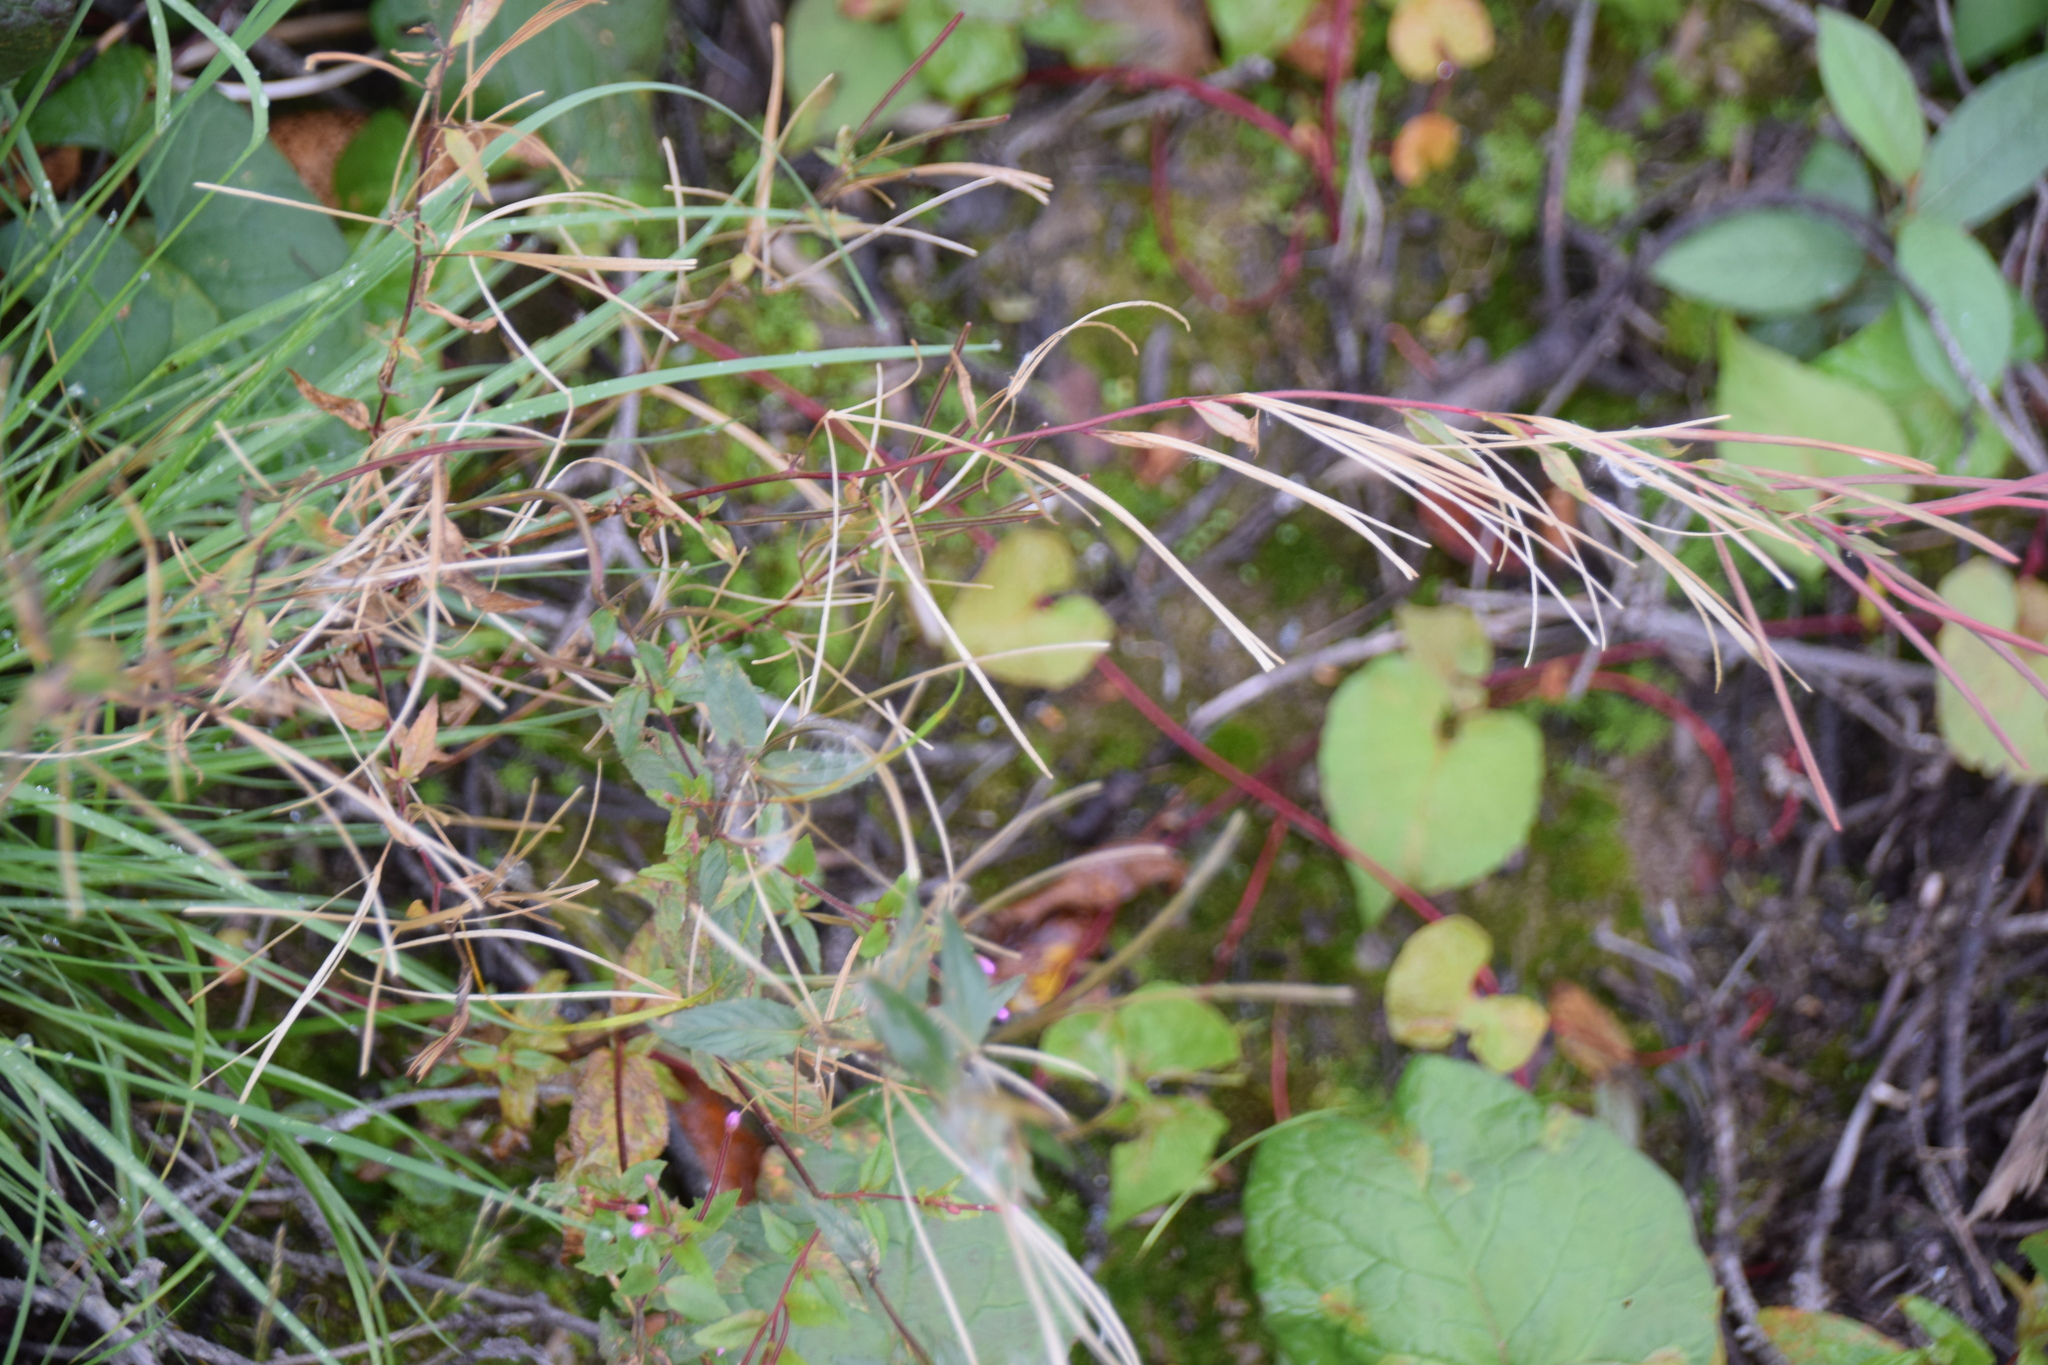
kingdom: Plantae
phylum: Tracheophyta
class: Magnoliopsida
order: Myrtales
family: Onagraceae
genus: Epilobium
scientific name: Epilobium ciliatum
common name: American willowherb
